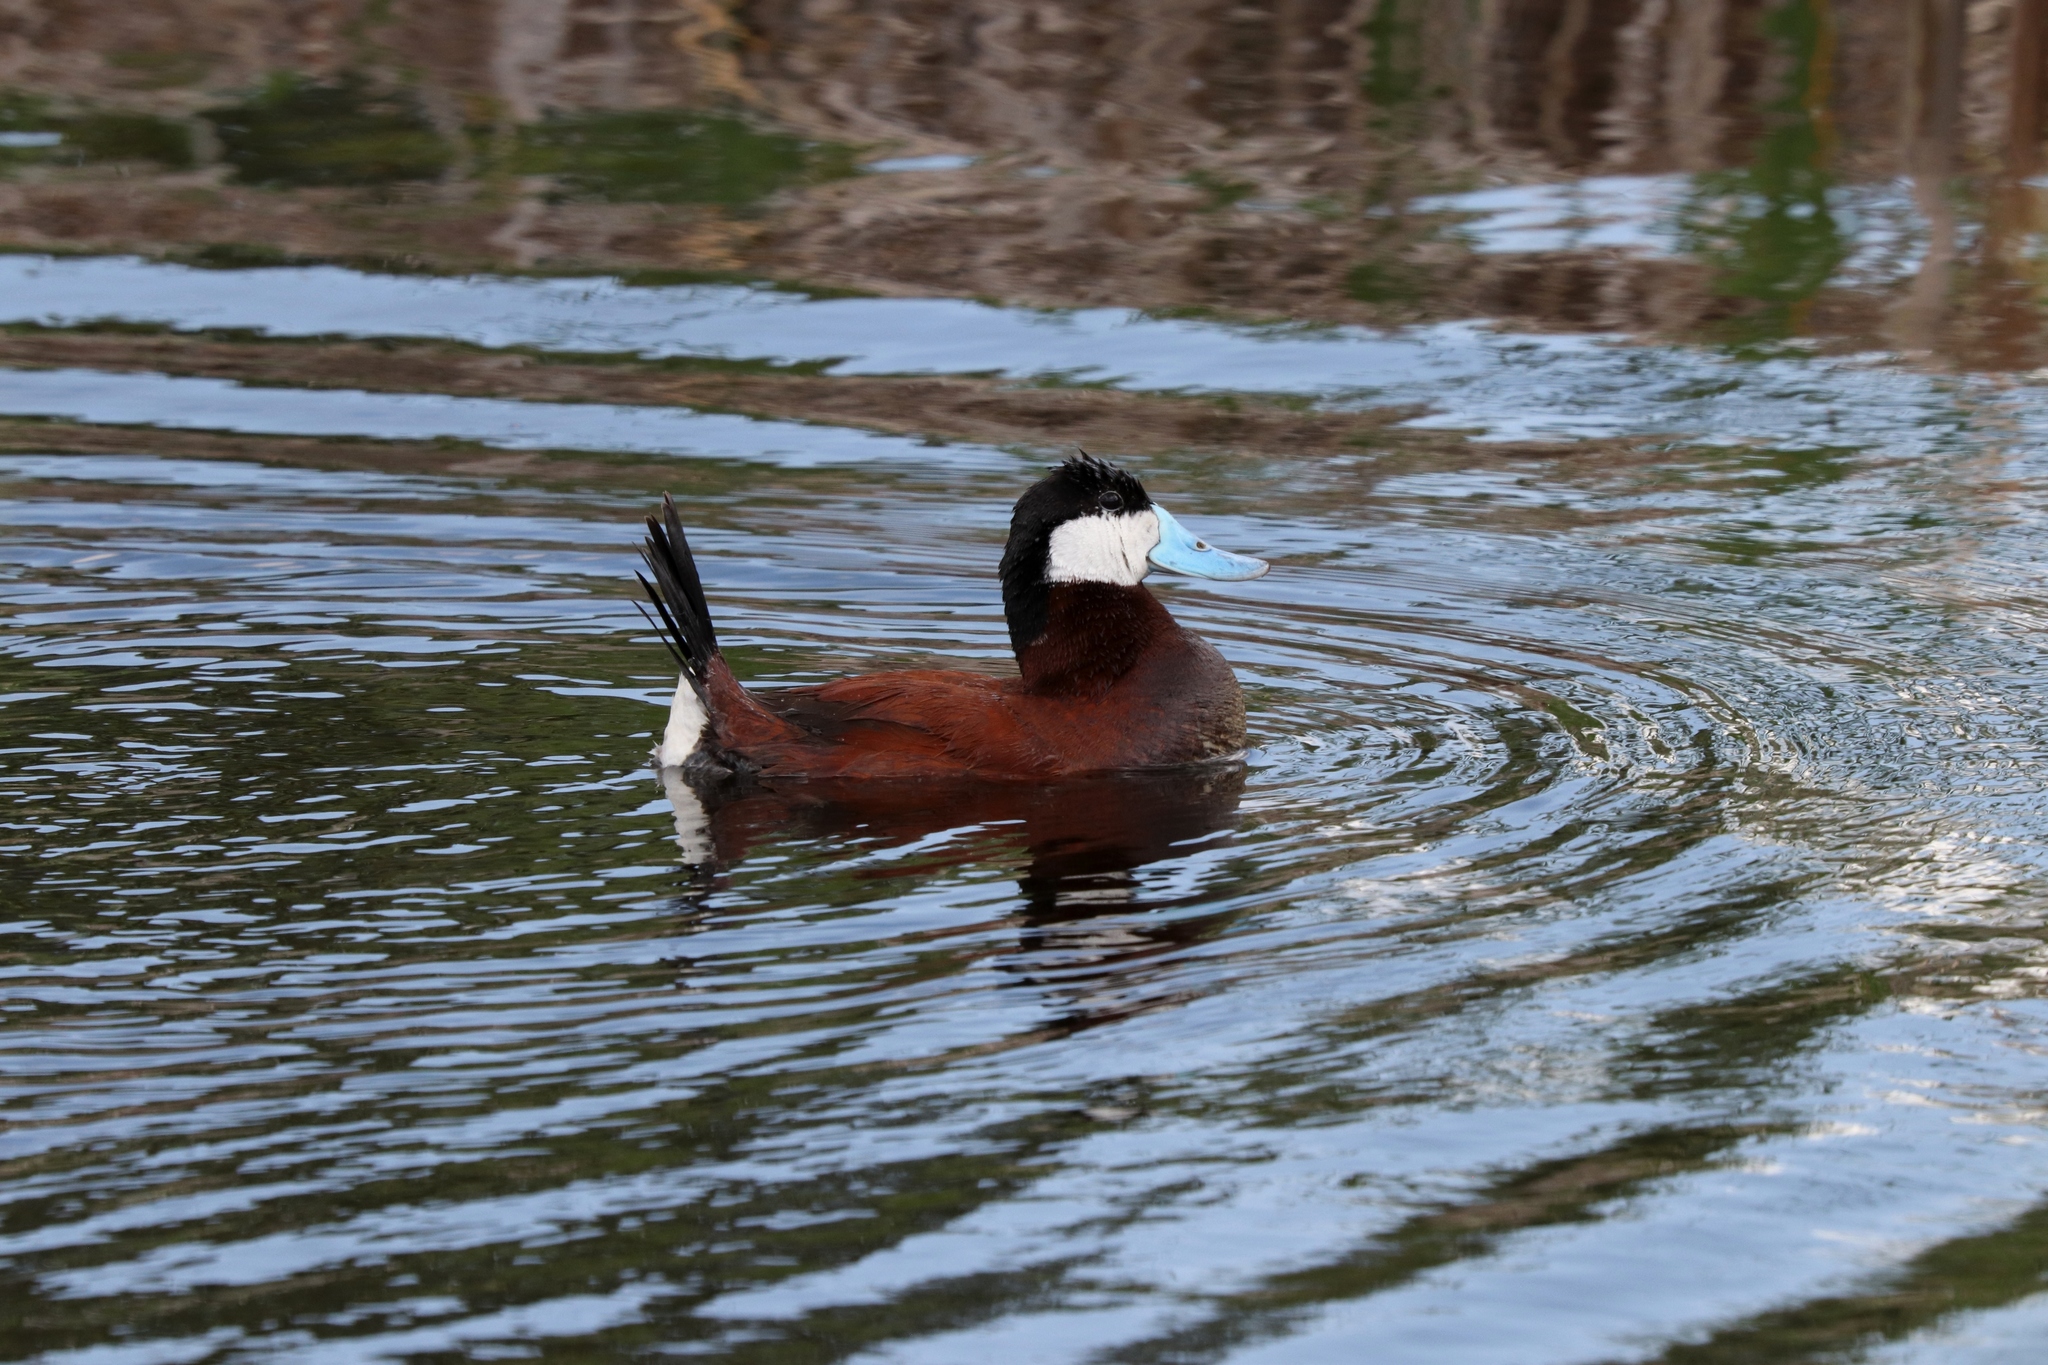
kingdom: Animalia
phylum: Chordata
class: Aves
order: Anseriformes
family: Anatidae
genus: Oxyura
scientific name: Oxyura jamaicensis
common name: Ruddy duck
